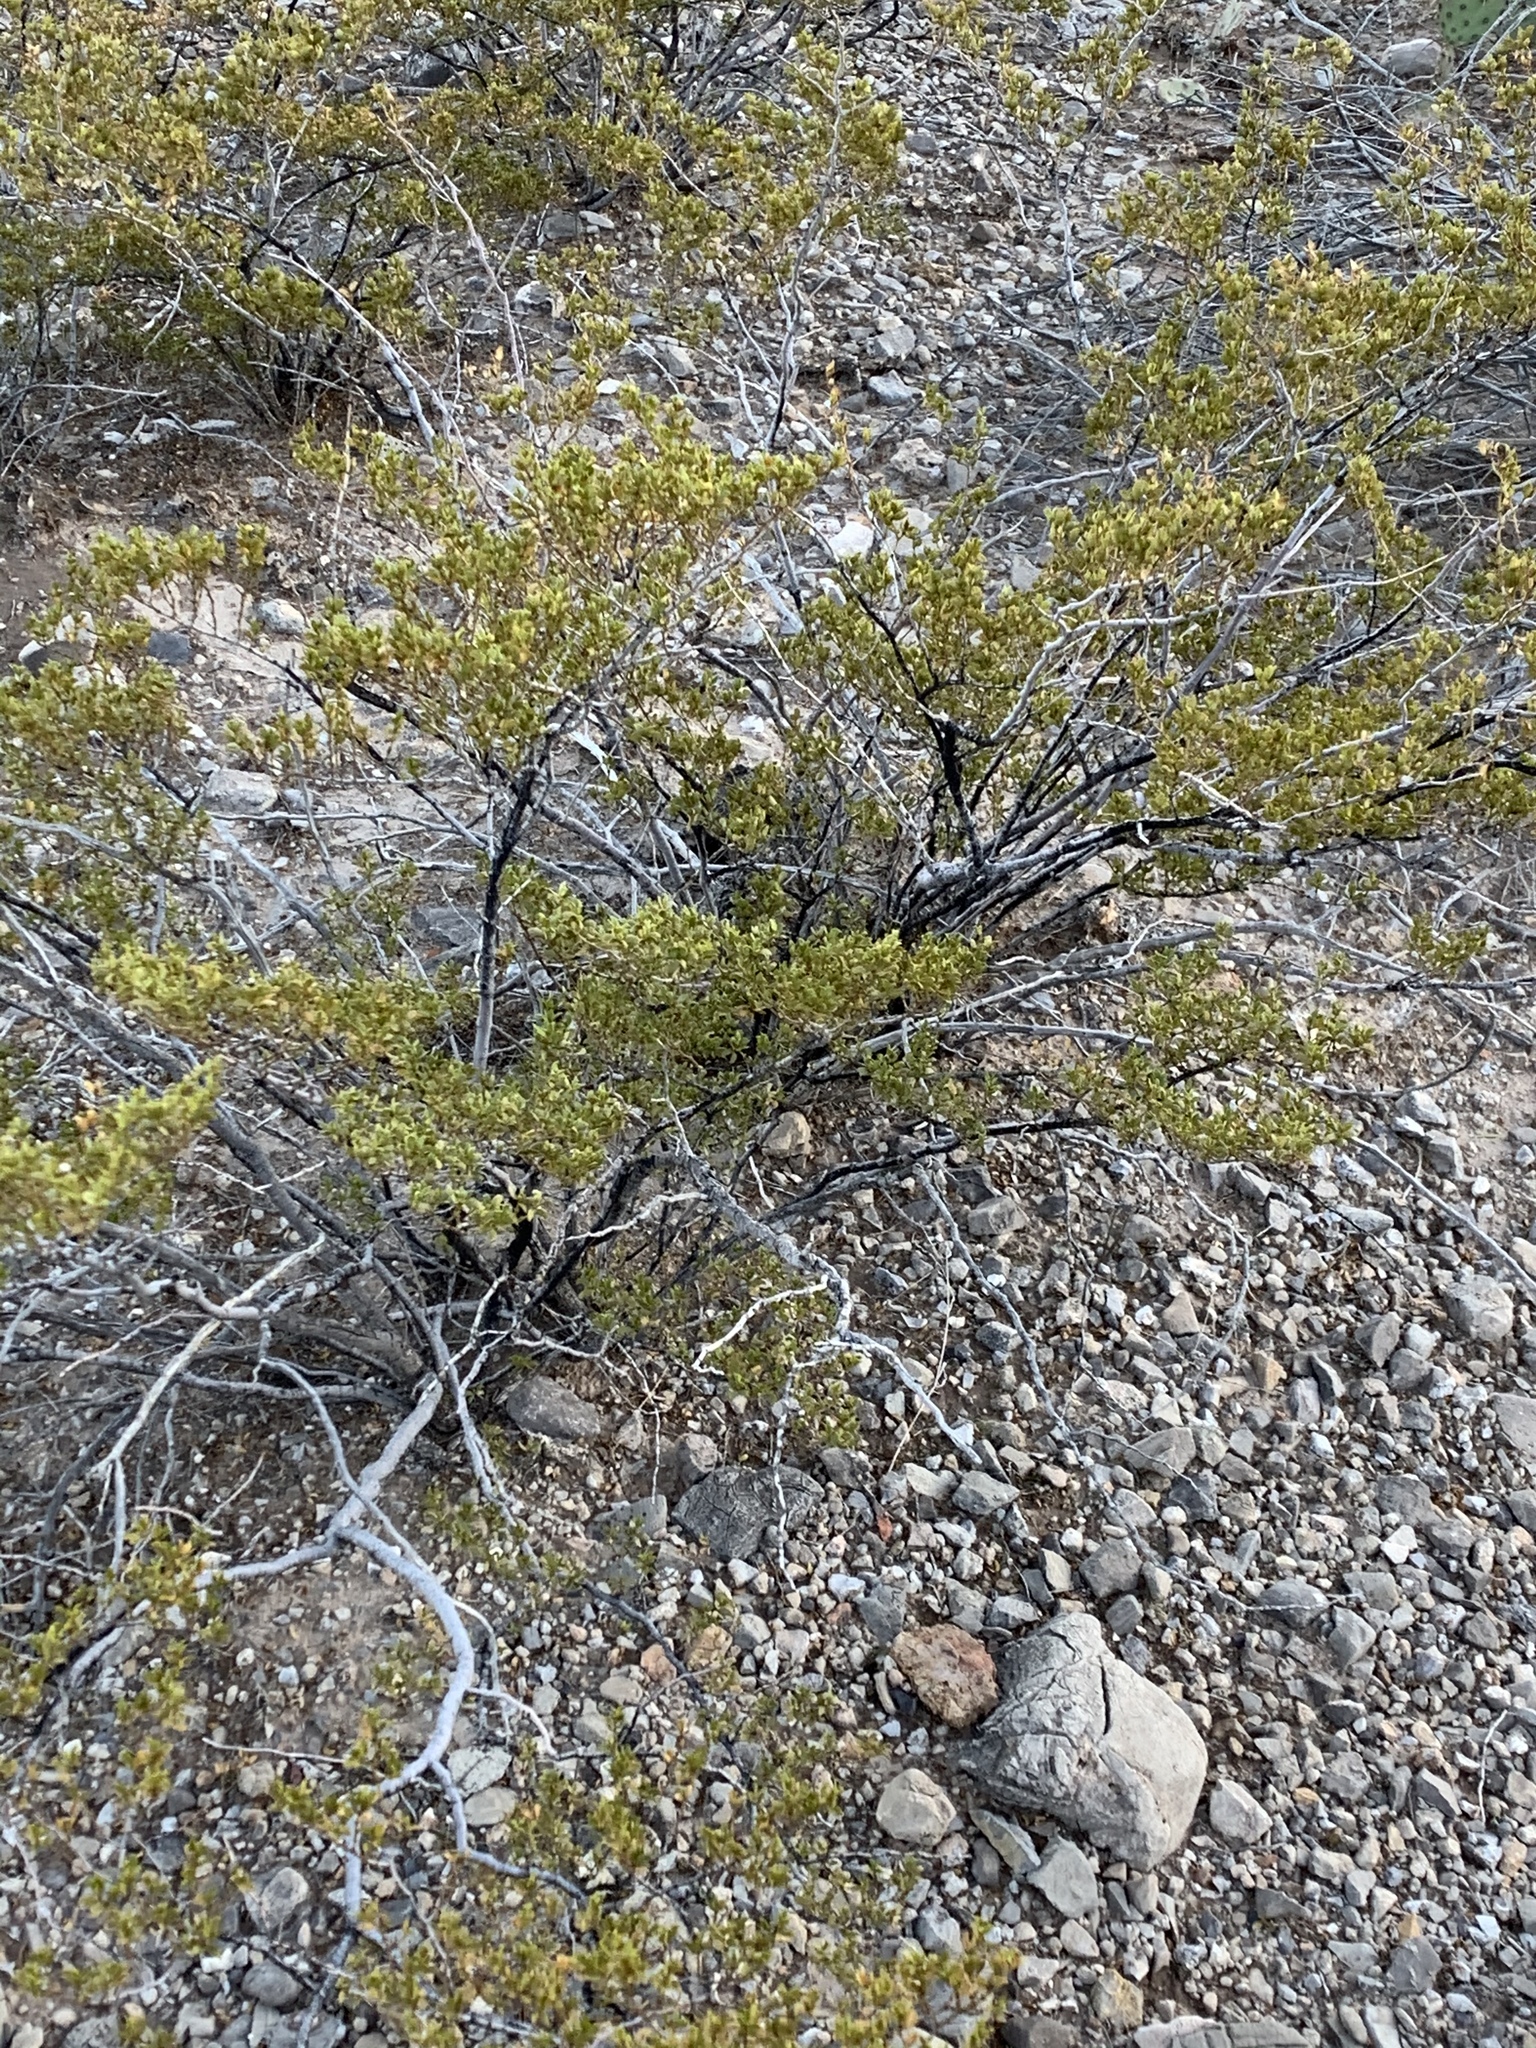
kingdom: Plantae
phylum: Tracheophyta
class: Magnoliopsida
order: Zygophyllales
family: Zygophyllaceae
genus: Larrea
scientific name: Larrea tridentata
